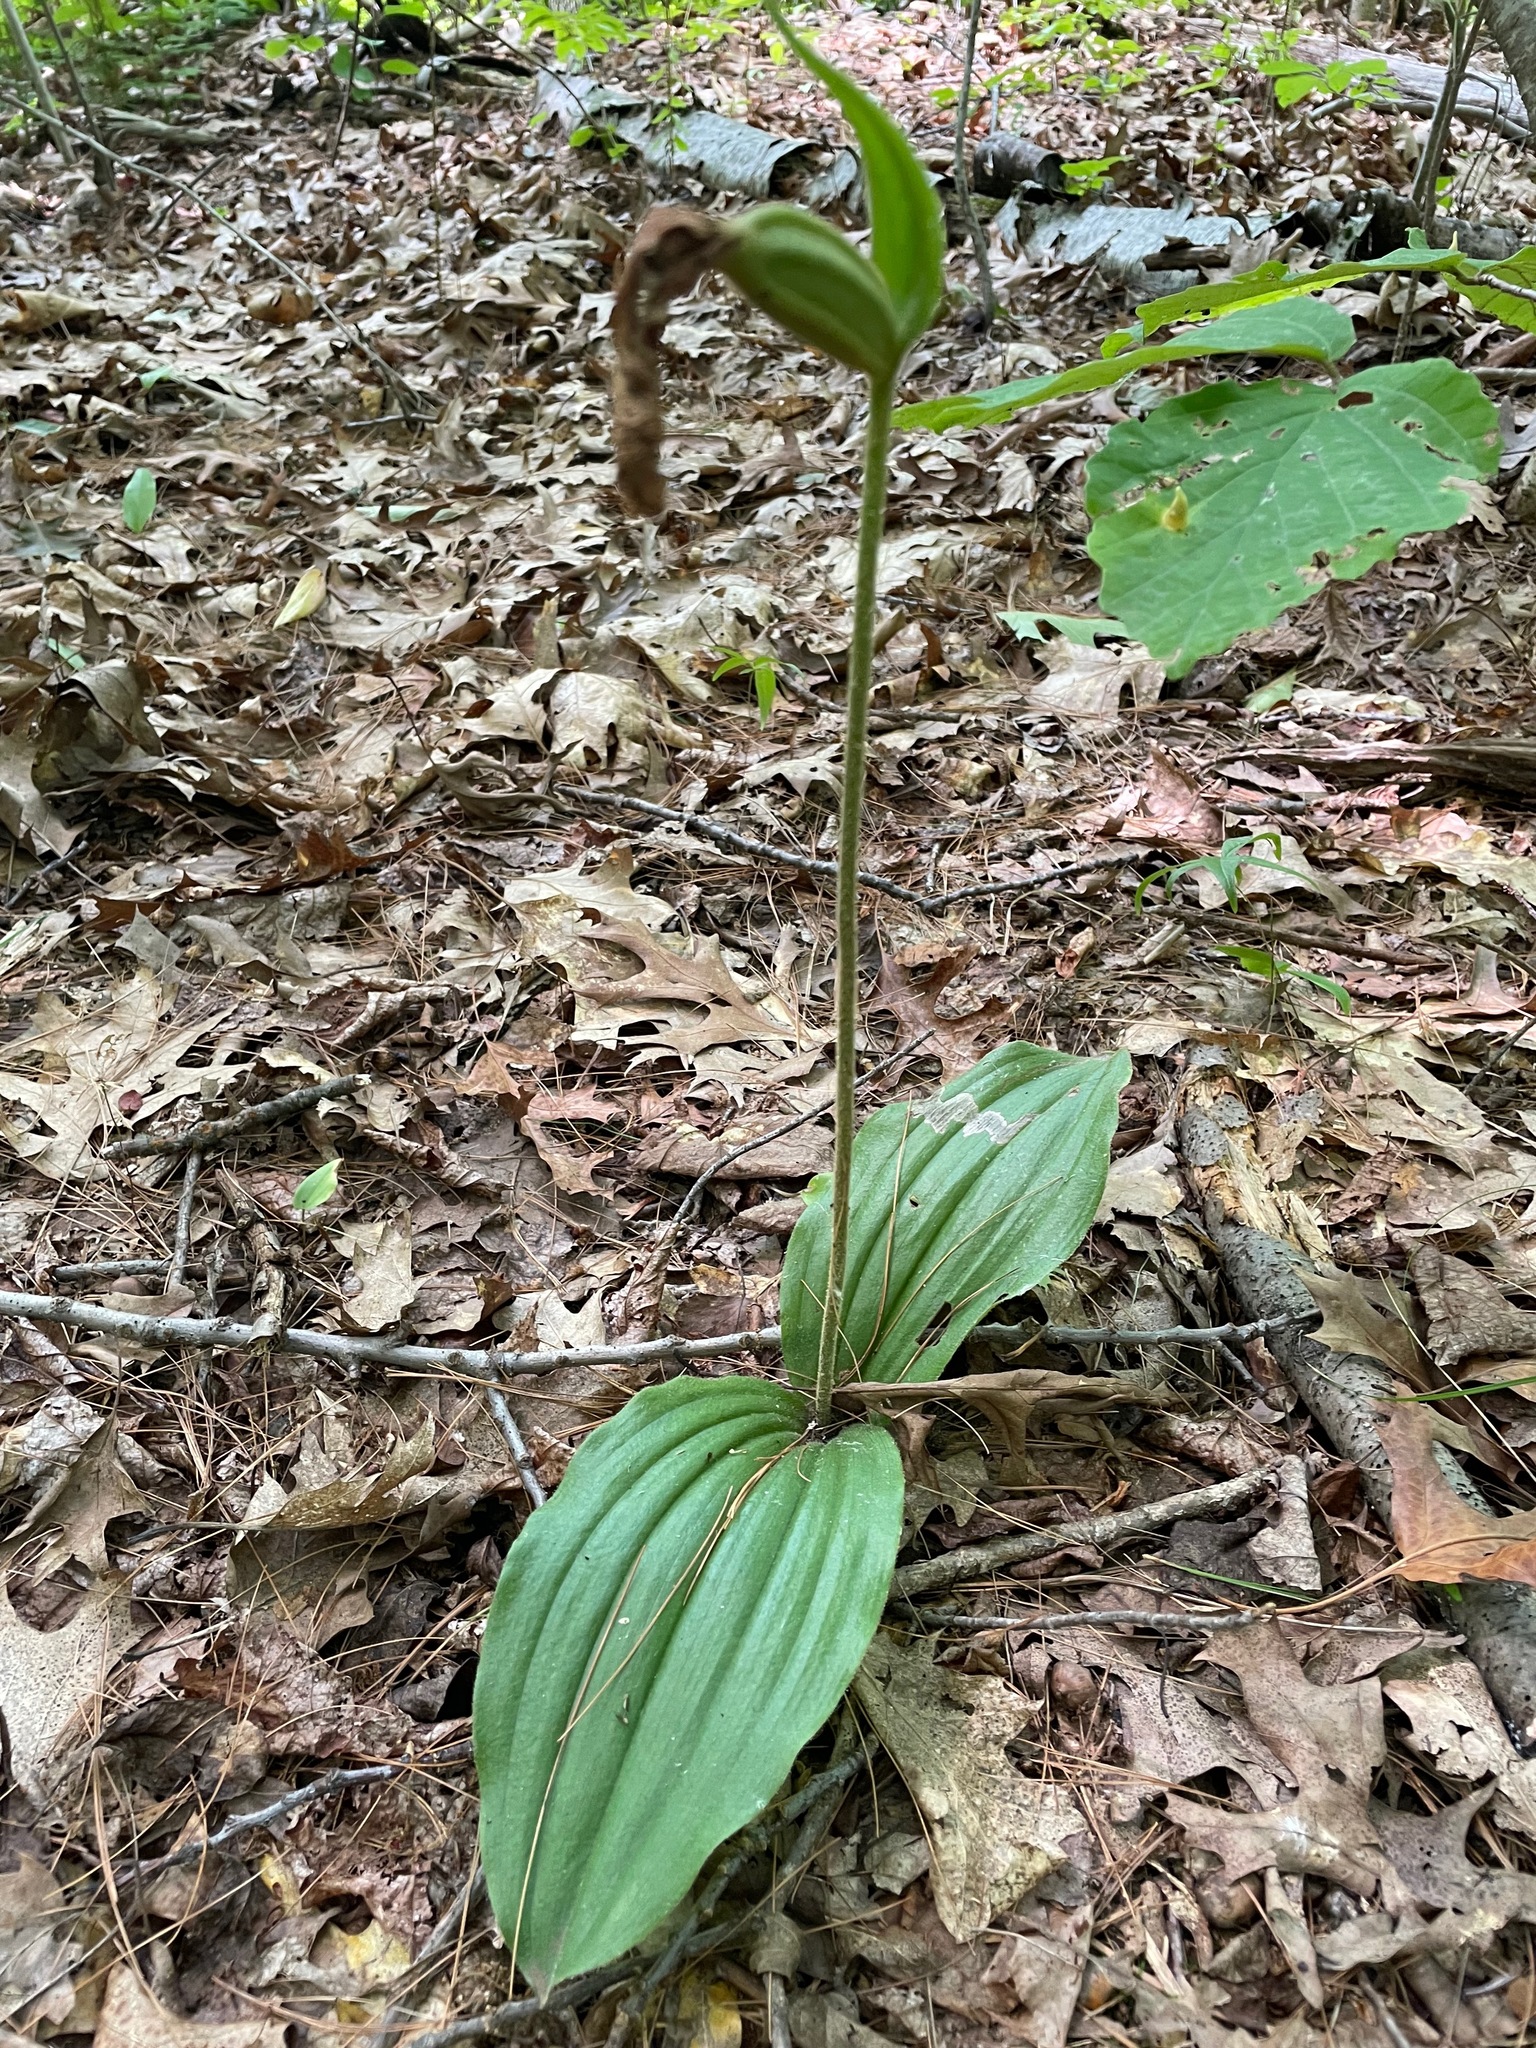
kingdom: Plantae
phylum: Tracheophyta
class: Liliopsida
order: Asparagales
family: Orchidaceae
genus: Cypripedium
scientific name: Cypripedium acaule
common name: Pink lady's-slipper
